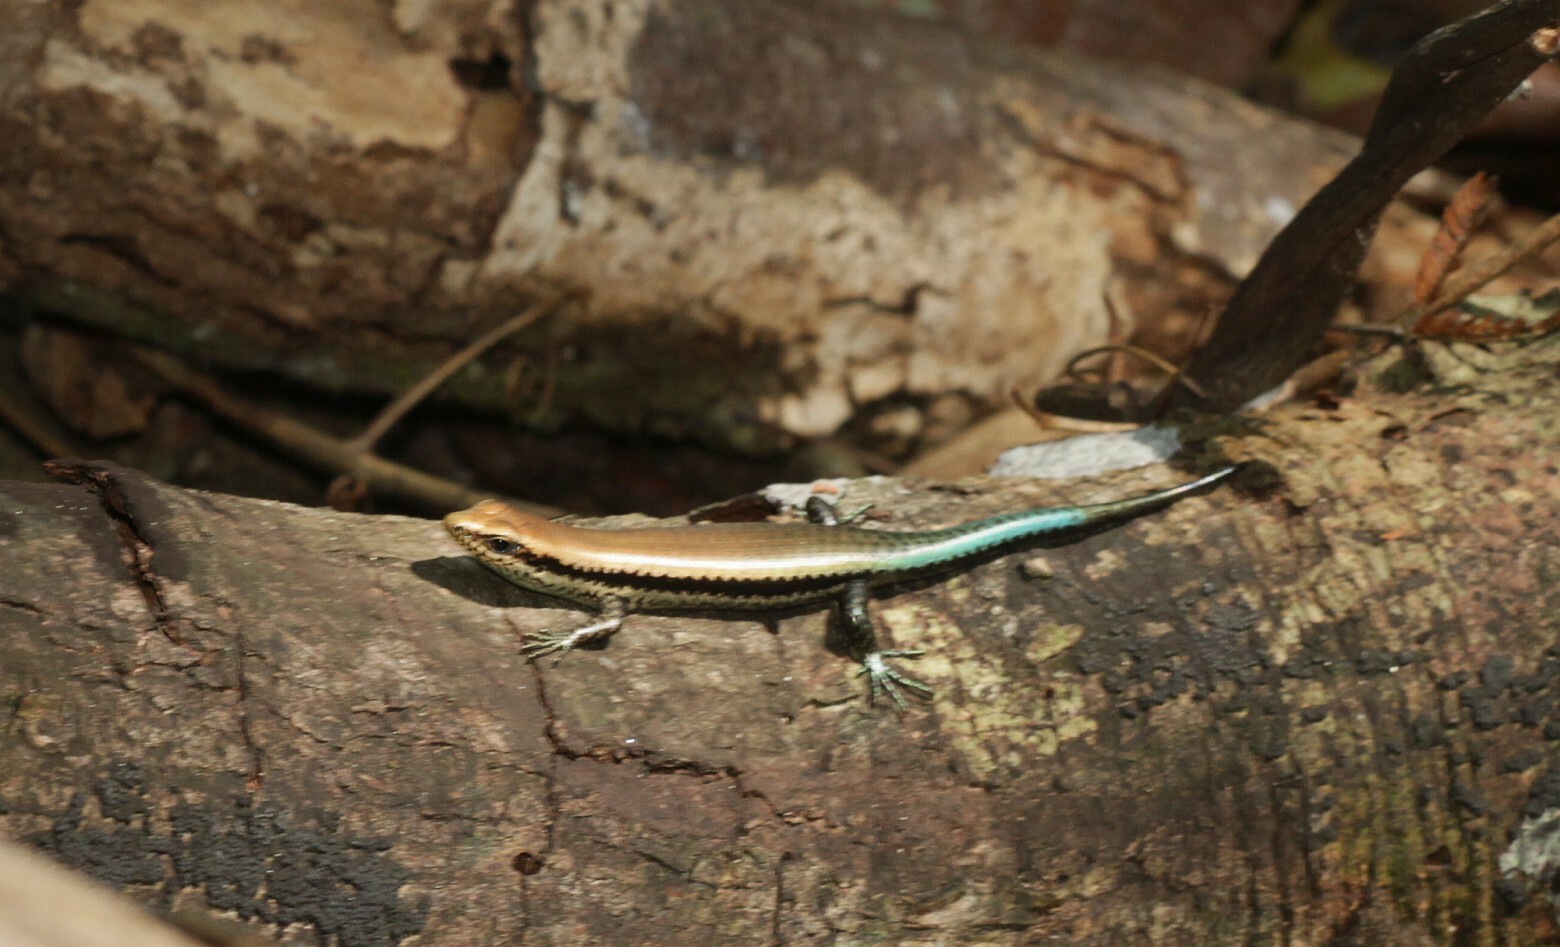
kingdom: Animalia
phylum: Chordata
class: Squamata
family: Scincidae
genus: Copeoglossum
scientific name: Copeoglossum nigropunctatum
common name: Black-spotted skink
